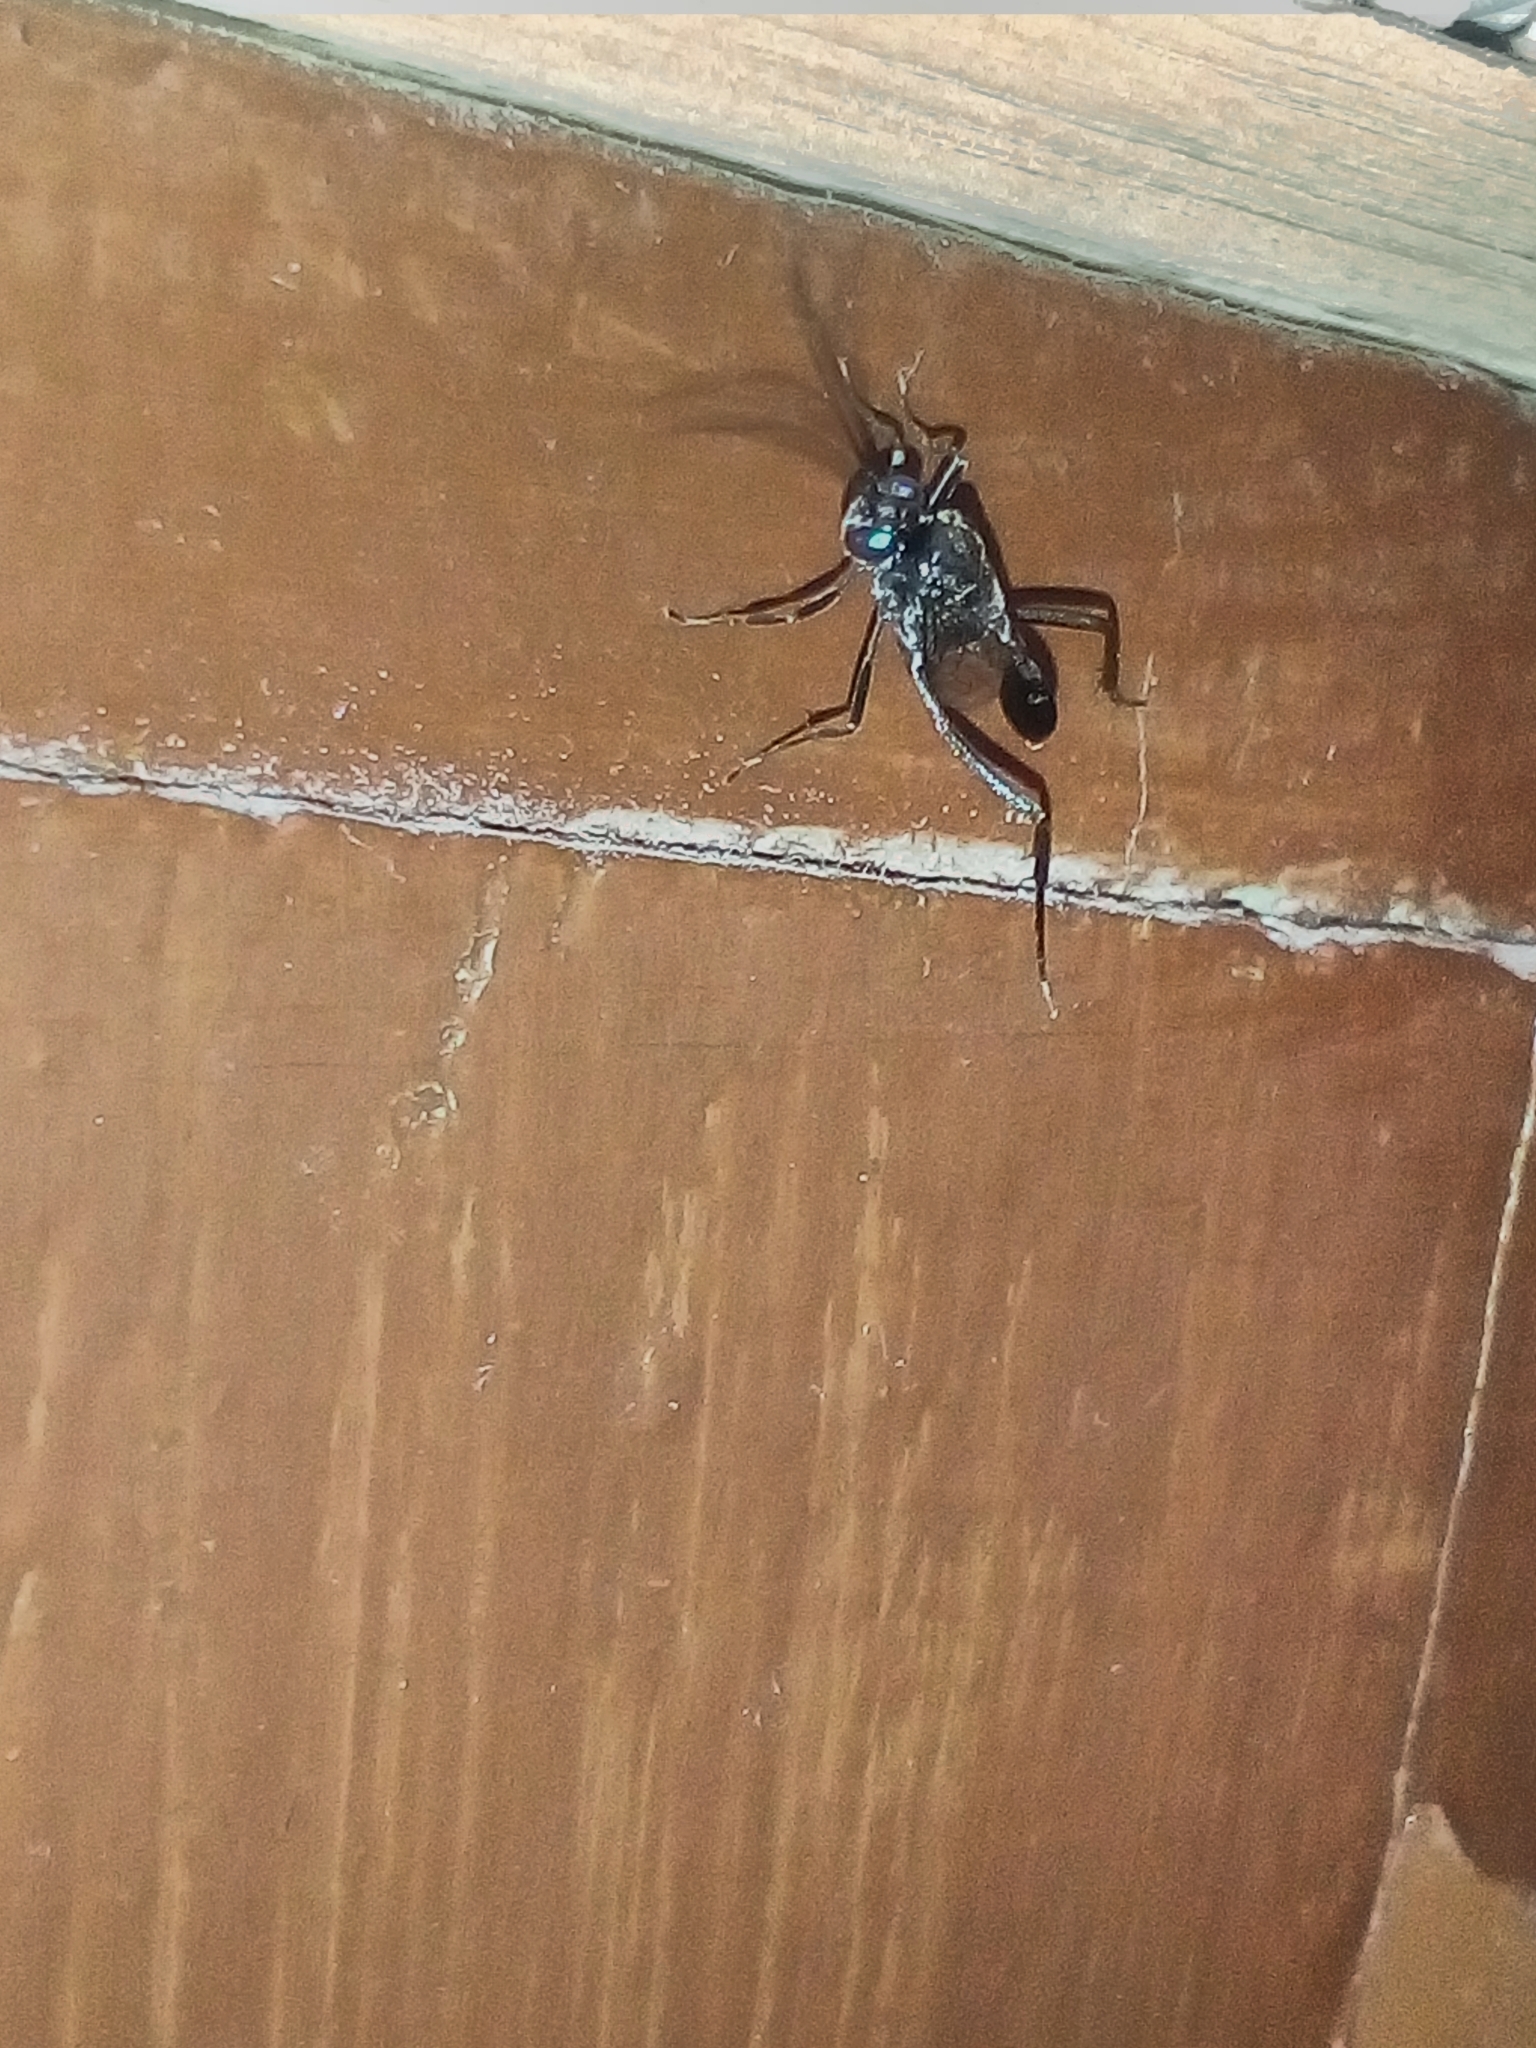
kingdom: Animalia
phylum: Arthropoda
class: Insecta
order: Hymenoptera
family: Evaniidae
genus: Evania
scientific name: Evania appendigaster
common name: Ensign wasp
